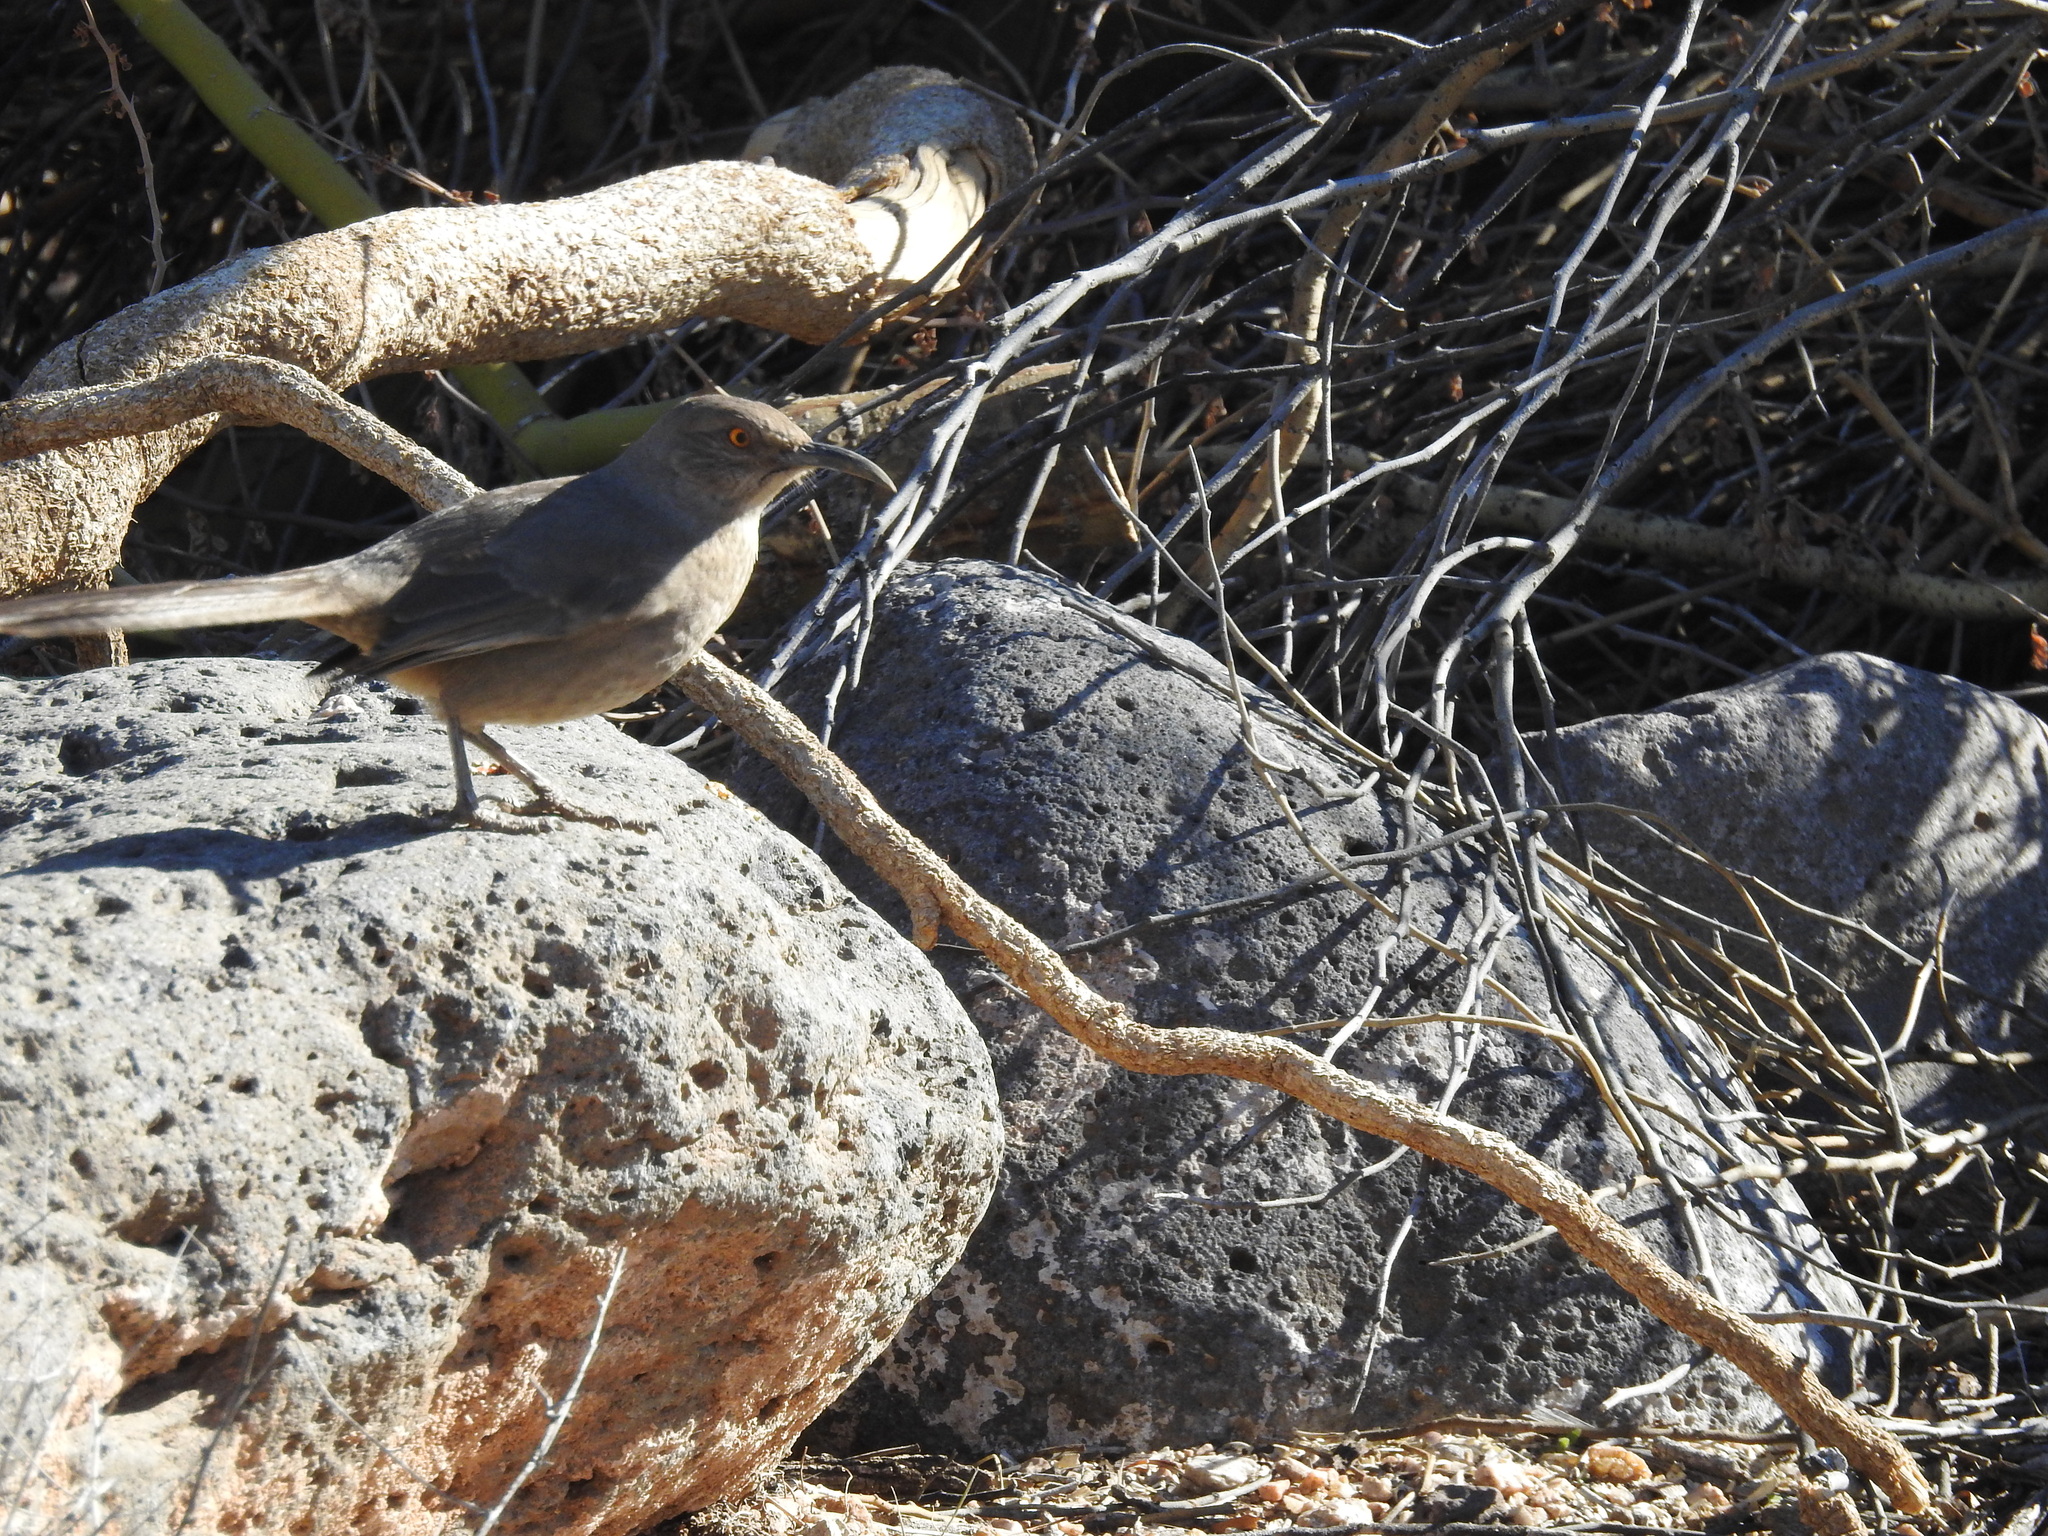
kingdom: Animalia
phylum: Chordata
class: Aves
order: Passeriformes
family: Mimidae
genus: Toxostoma
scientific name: Toxostoma curvirostre
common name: Curve-billed thrasher
